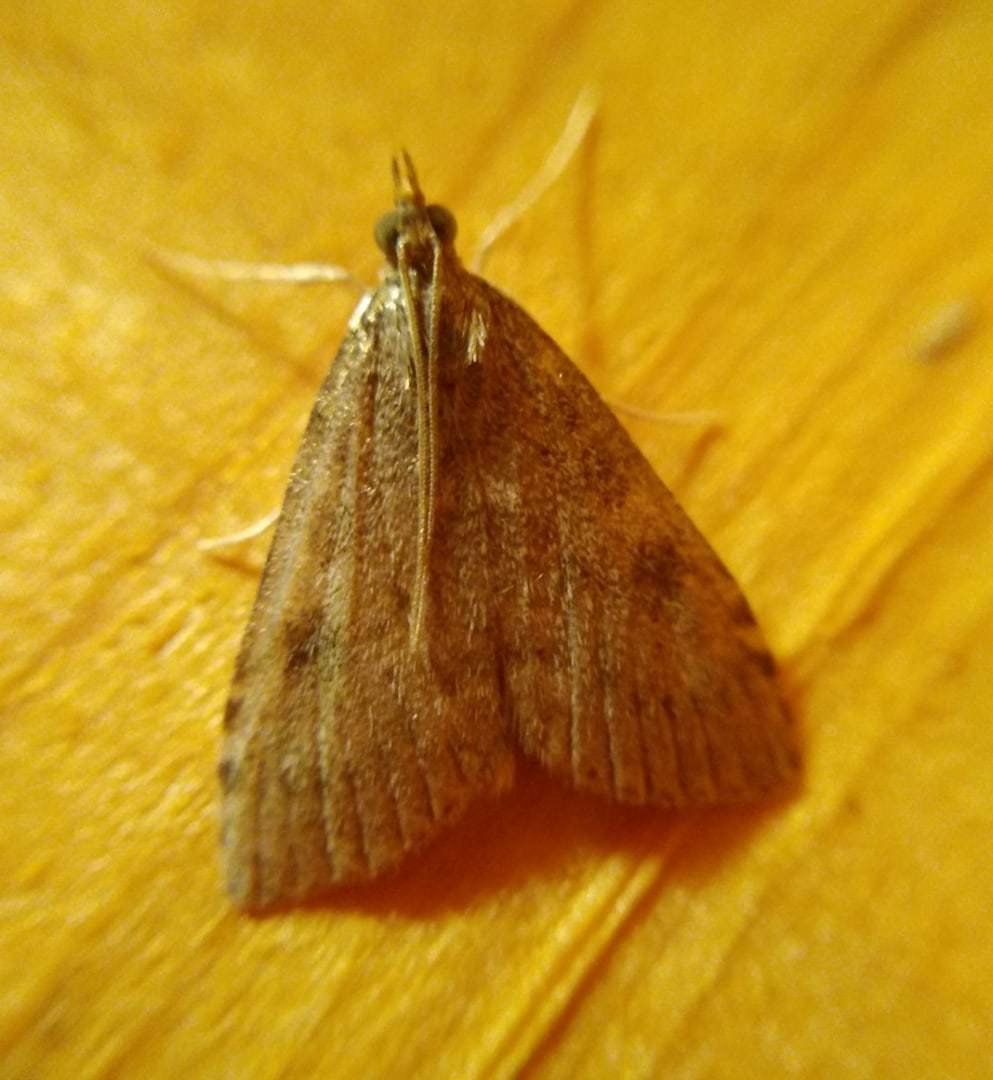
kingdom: Animalia
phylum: Arthropoda
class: Insecta
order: Lepidoptera
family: Crambidae
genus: Udea
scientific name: Udea prunalis
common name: Dusky pearl
